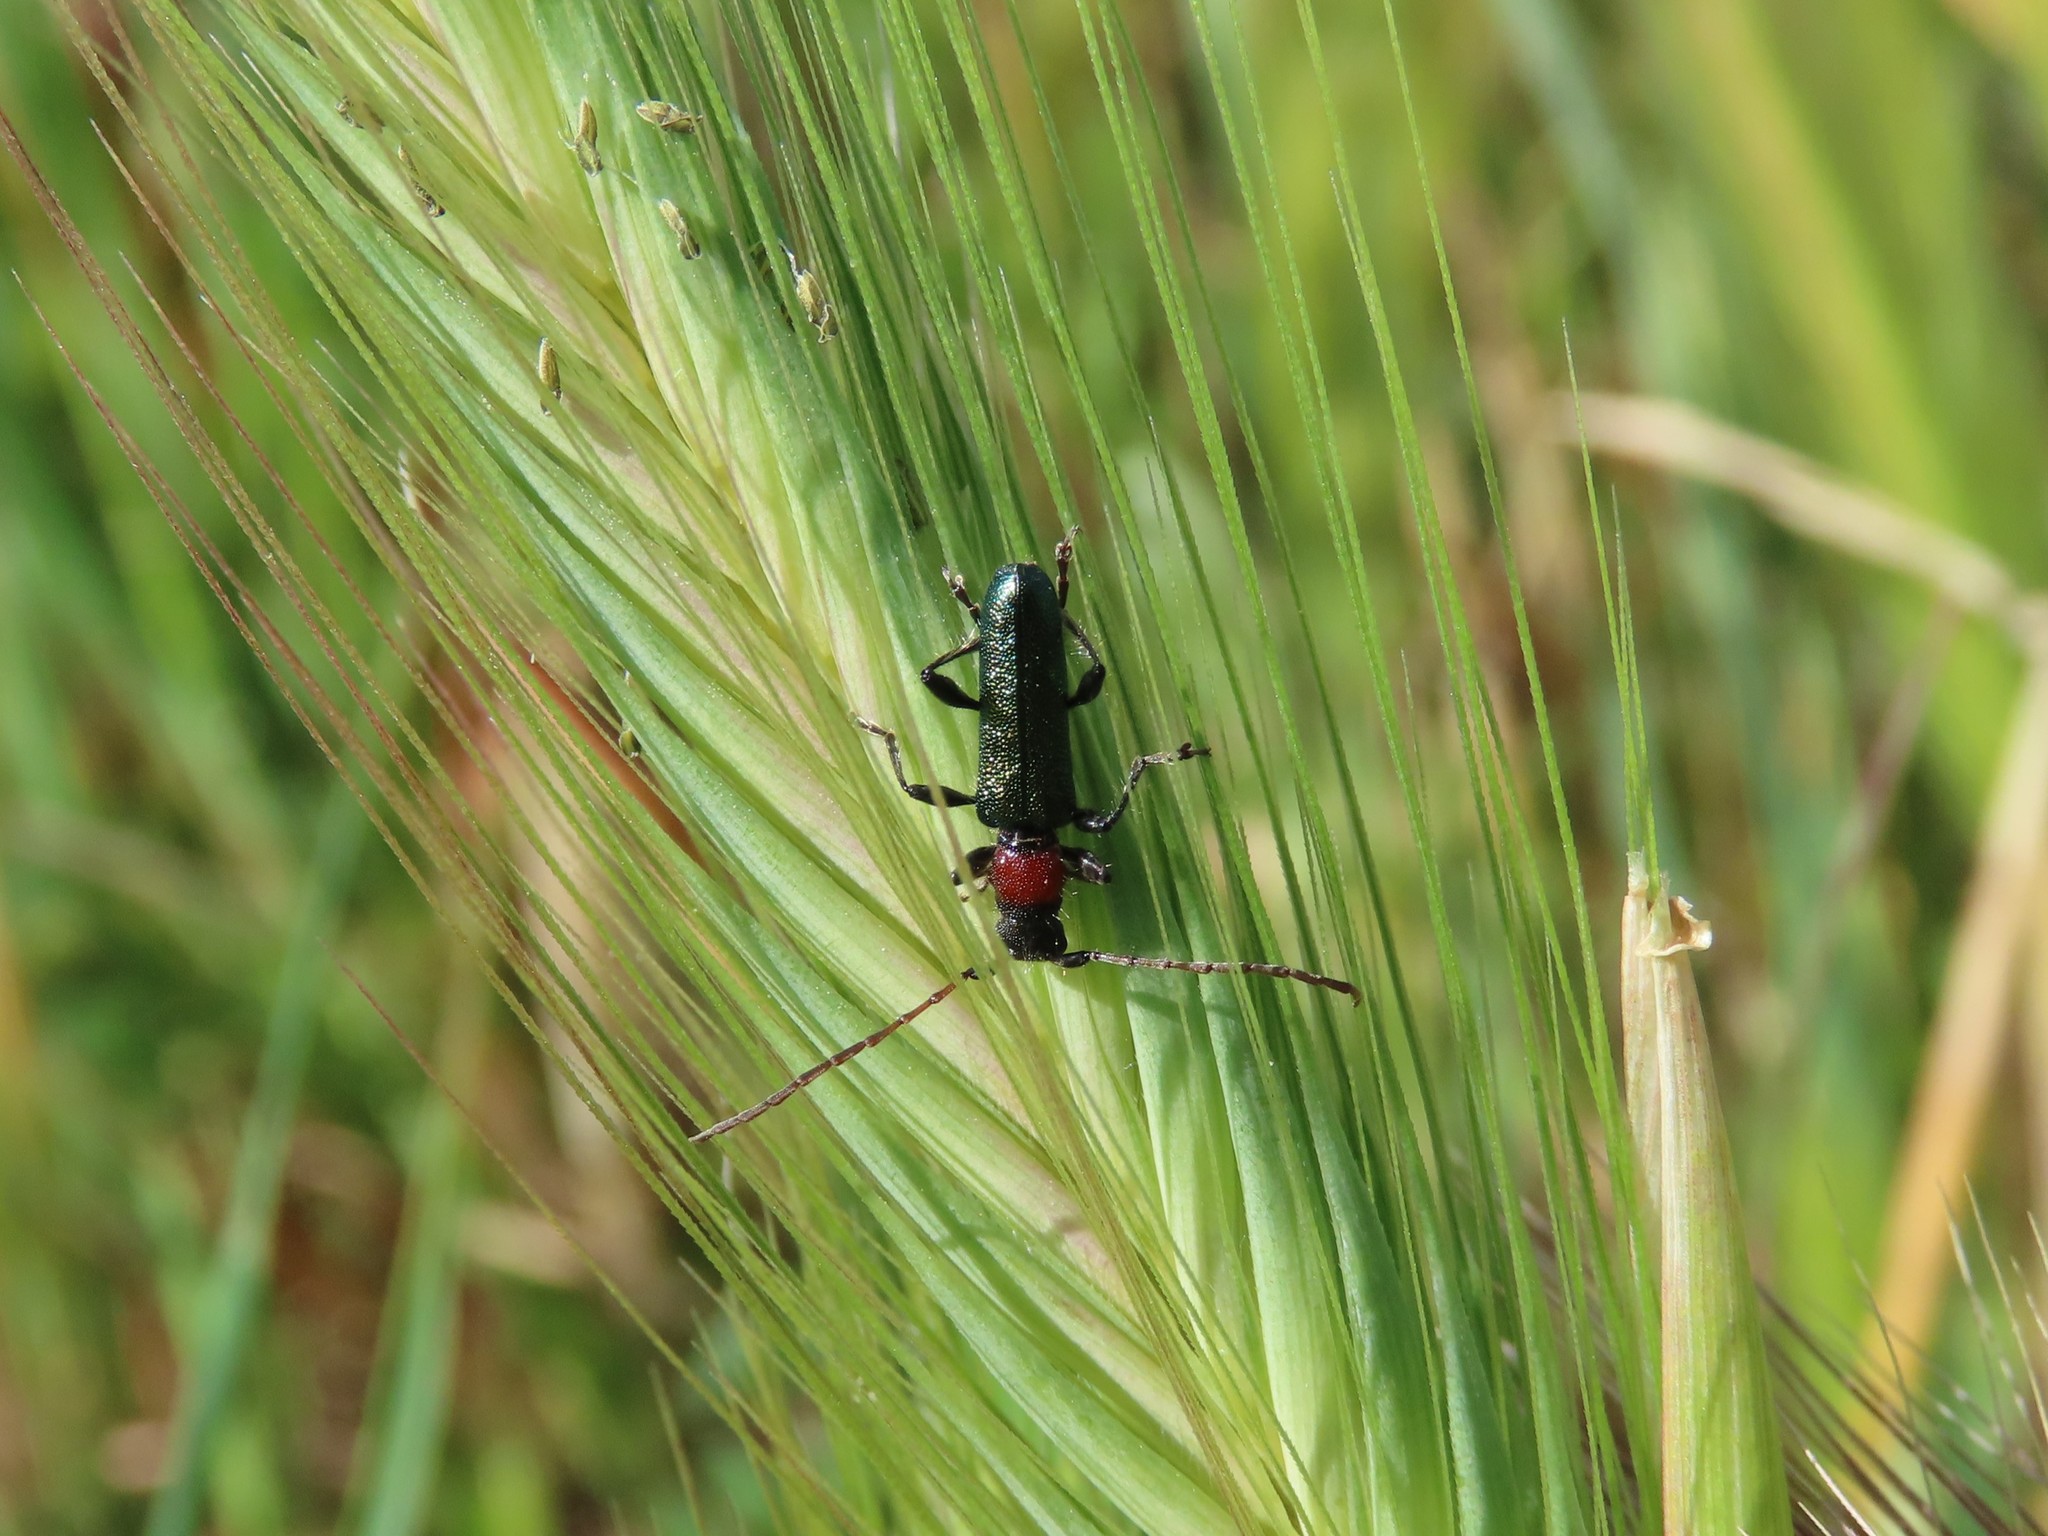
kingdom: Animalia
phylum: Arthropoda
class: Insecta
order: Coleoptera
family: Cerambycidae
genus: Certallum
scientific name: Certallum ebulinum
